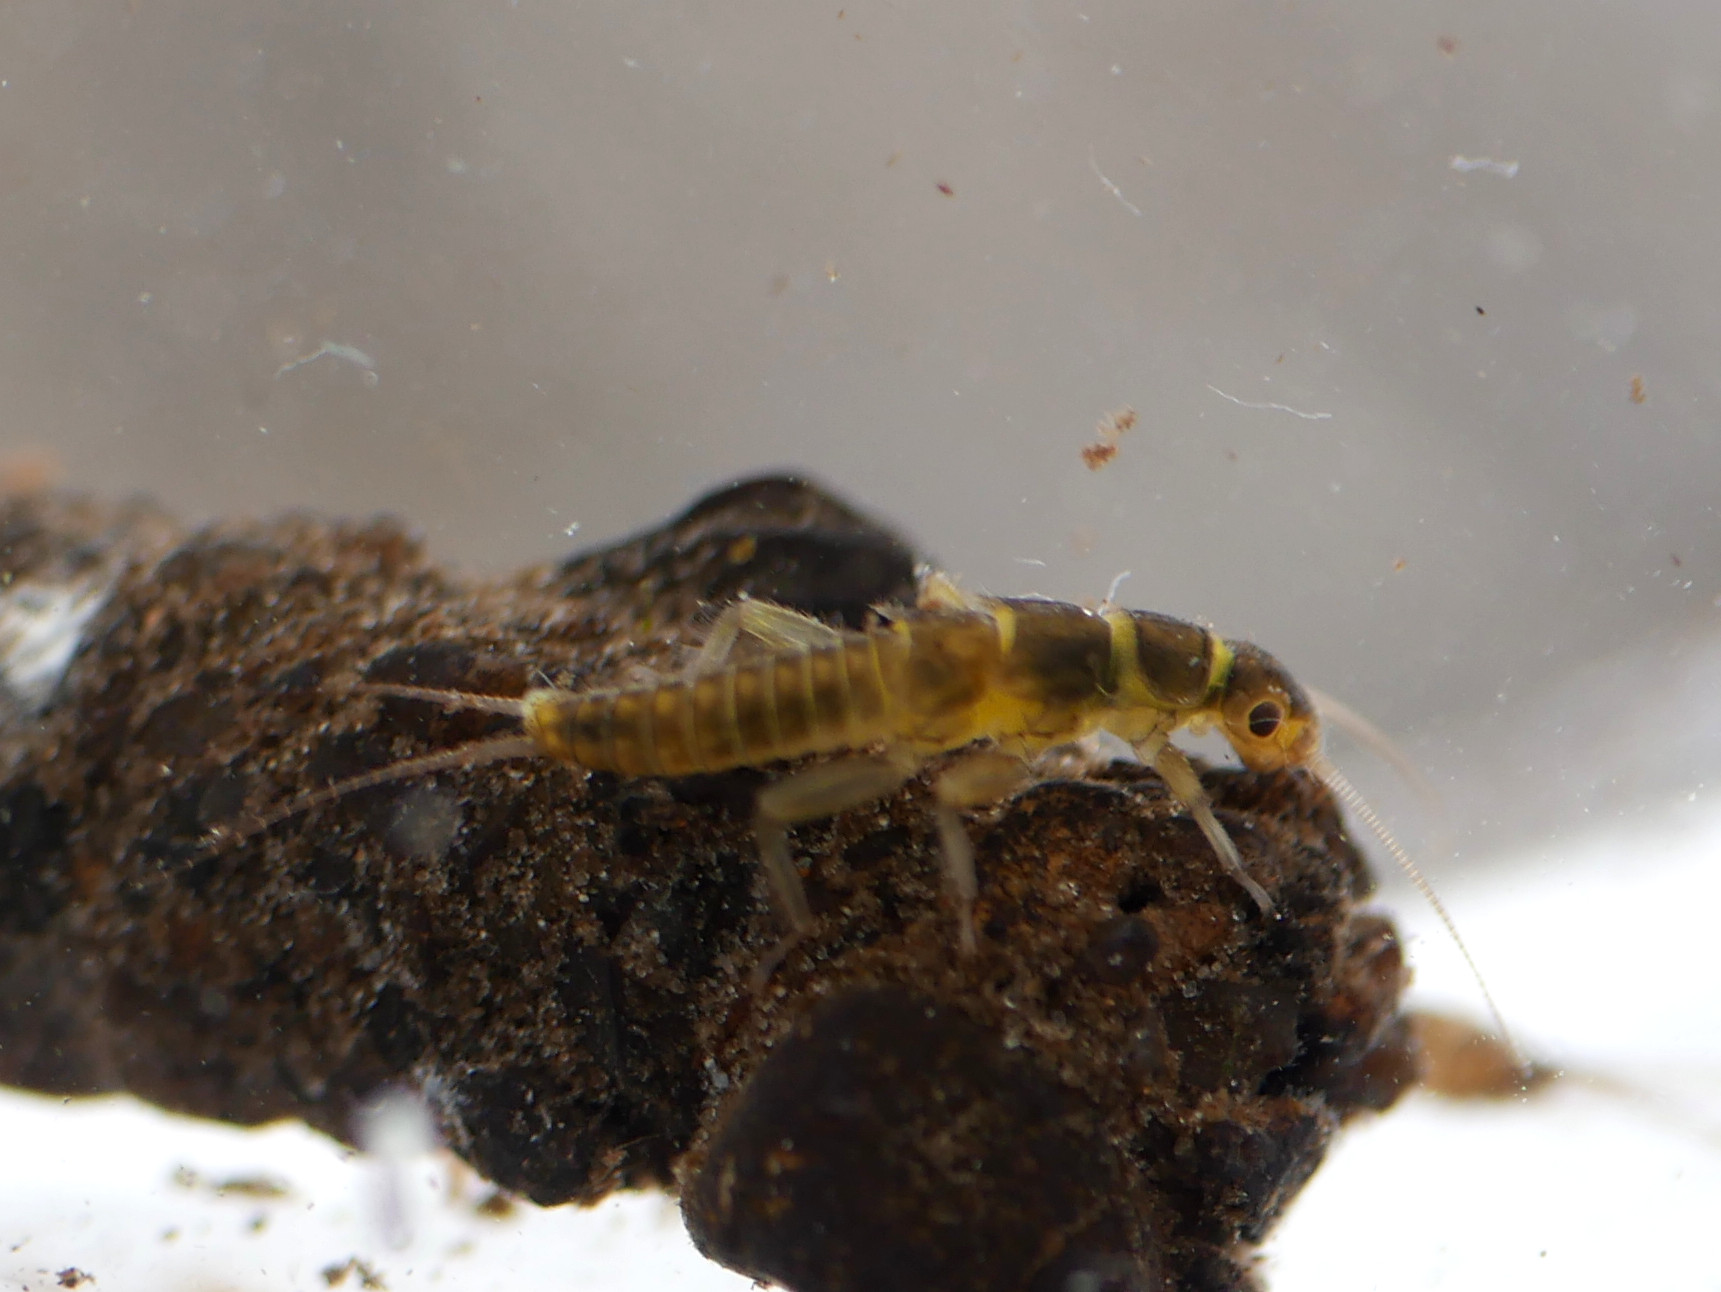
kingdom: Animalia
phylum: Arthropoda
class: Insecta
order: Plecoptera
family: Perlodidae
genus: Isoperla
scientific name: Isoperla grammatica
